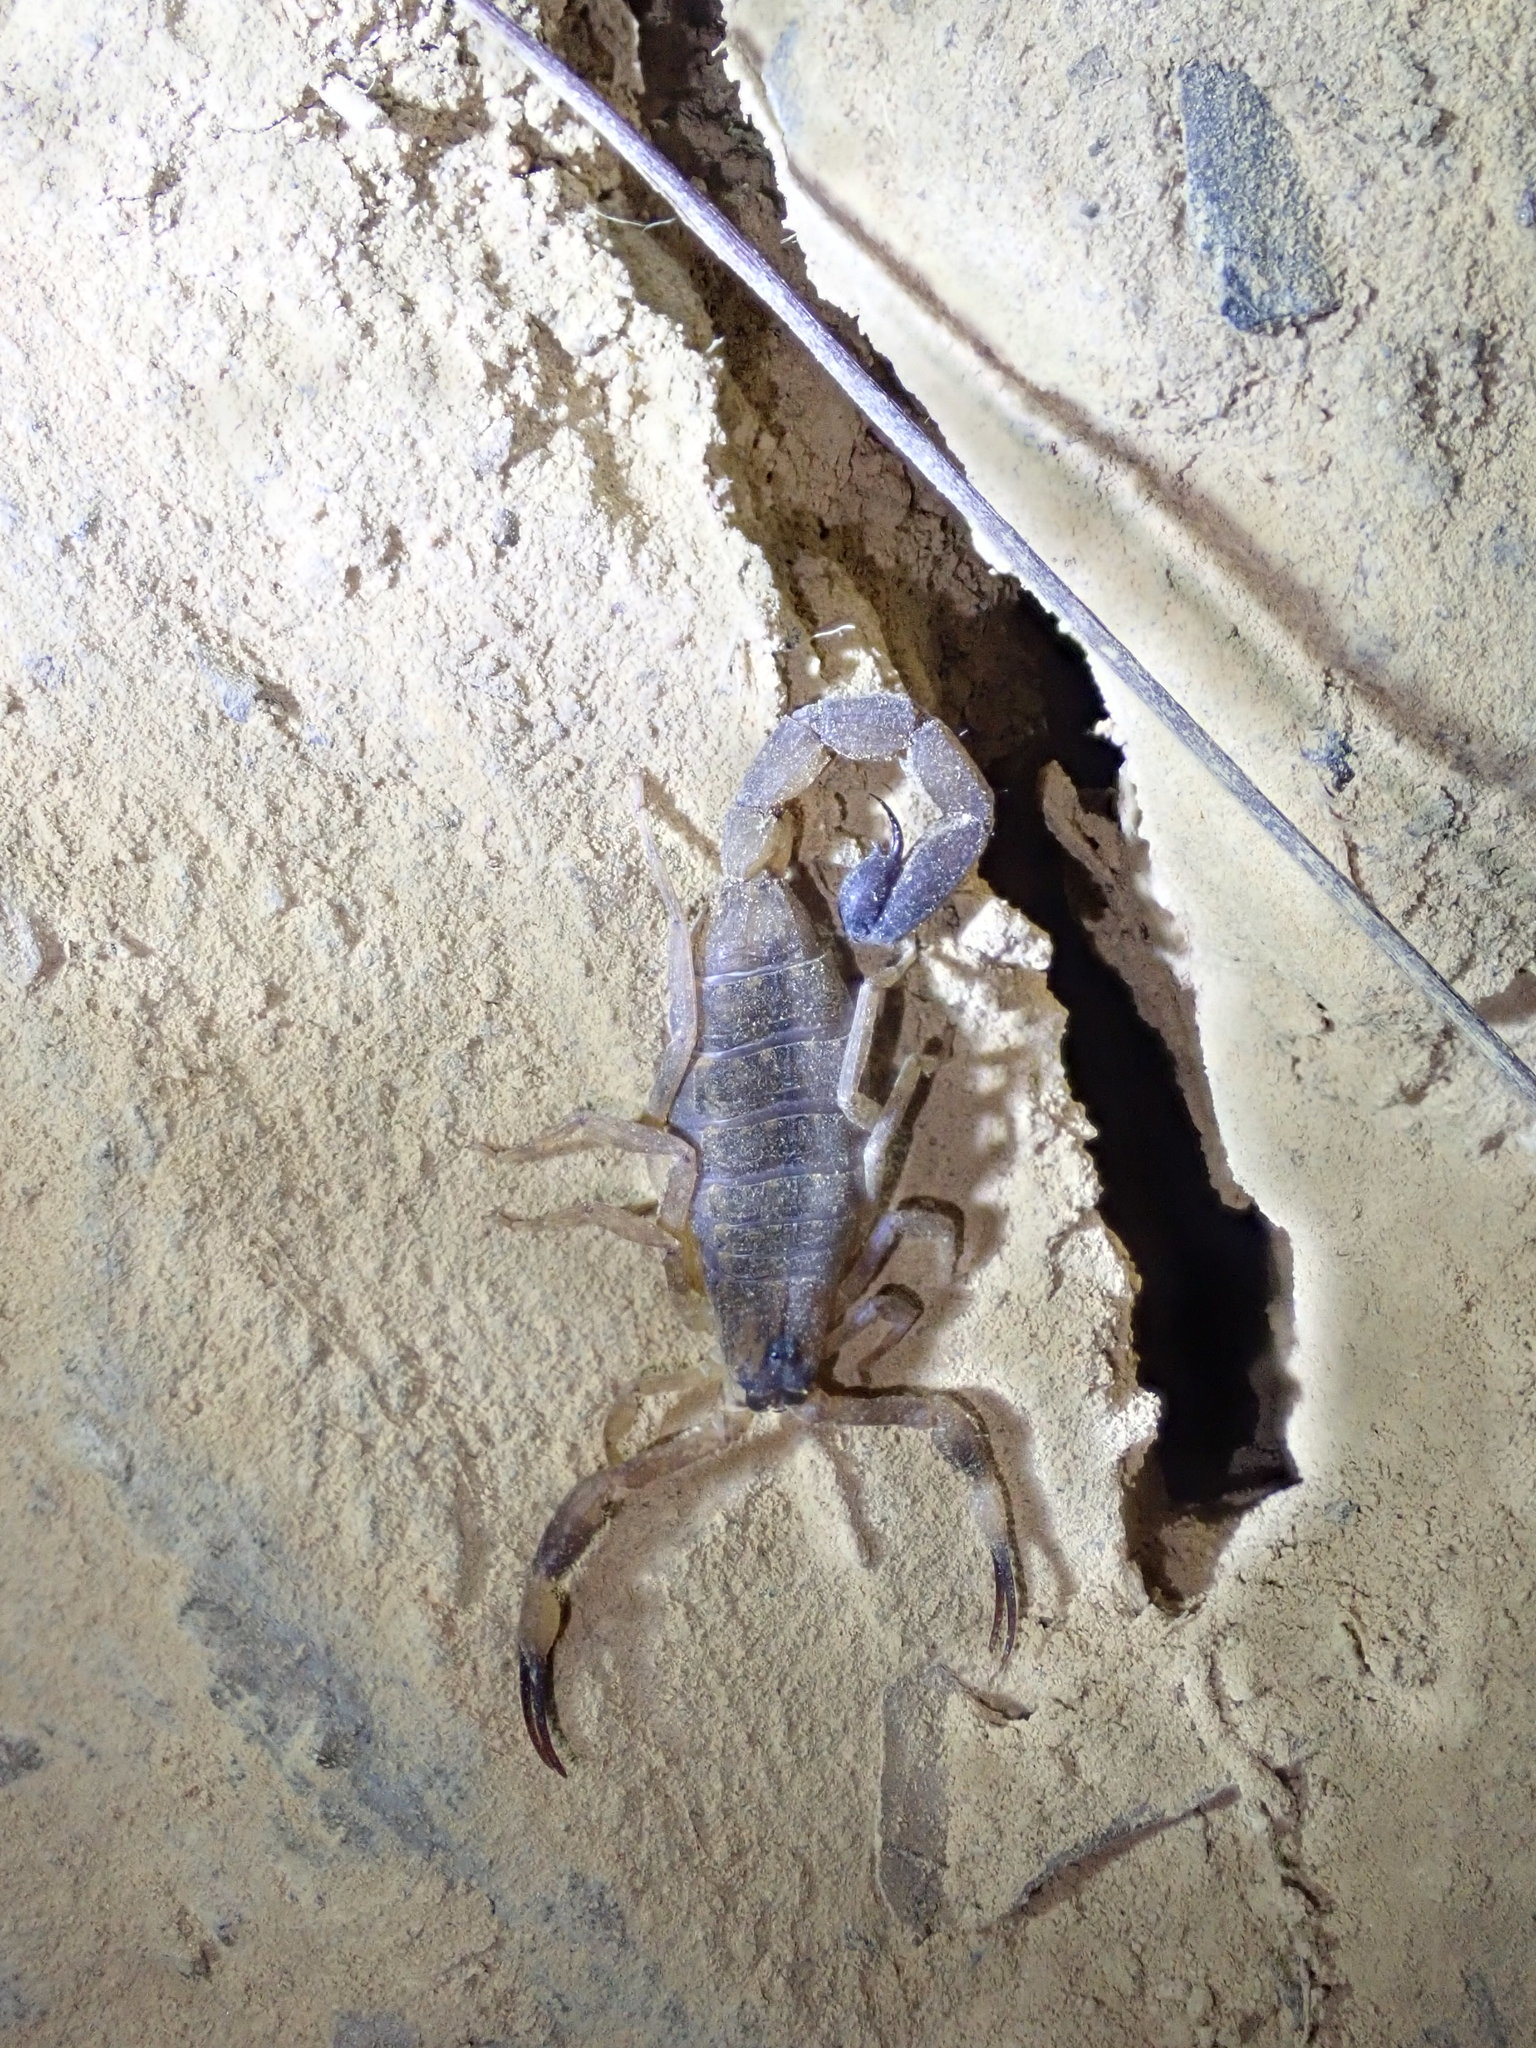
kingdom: Animalia
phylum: Arthropoda
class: Arachnida
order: Scorpiones
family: Buthidae
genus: Lychas
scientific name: Lychas mucronatus
